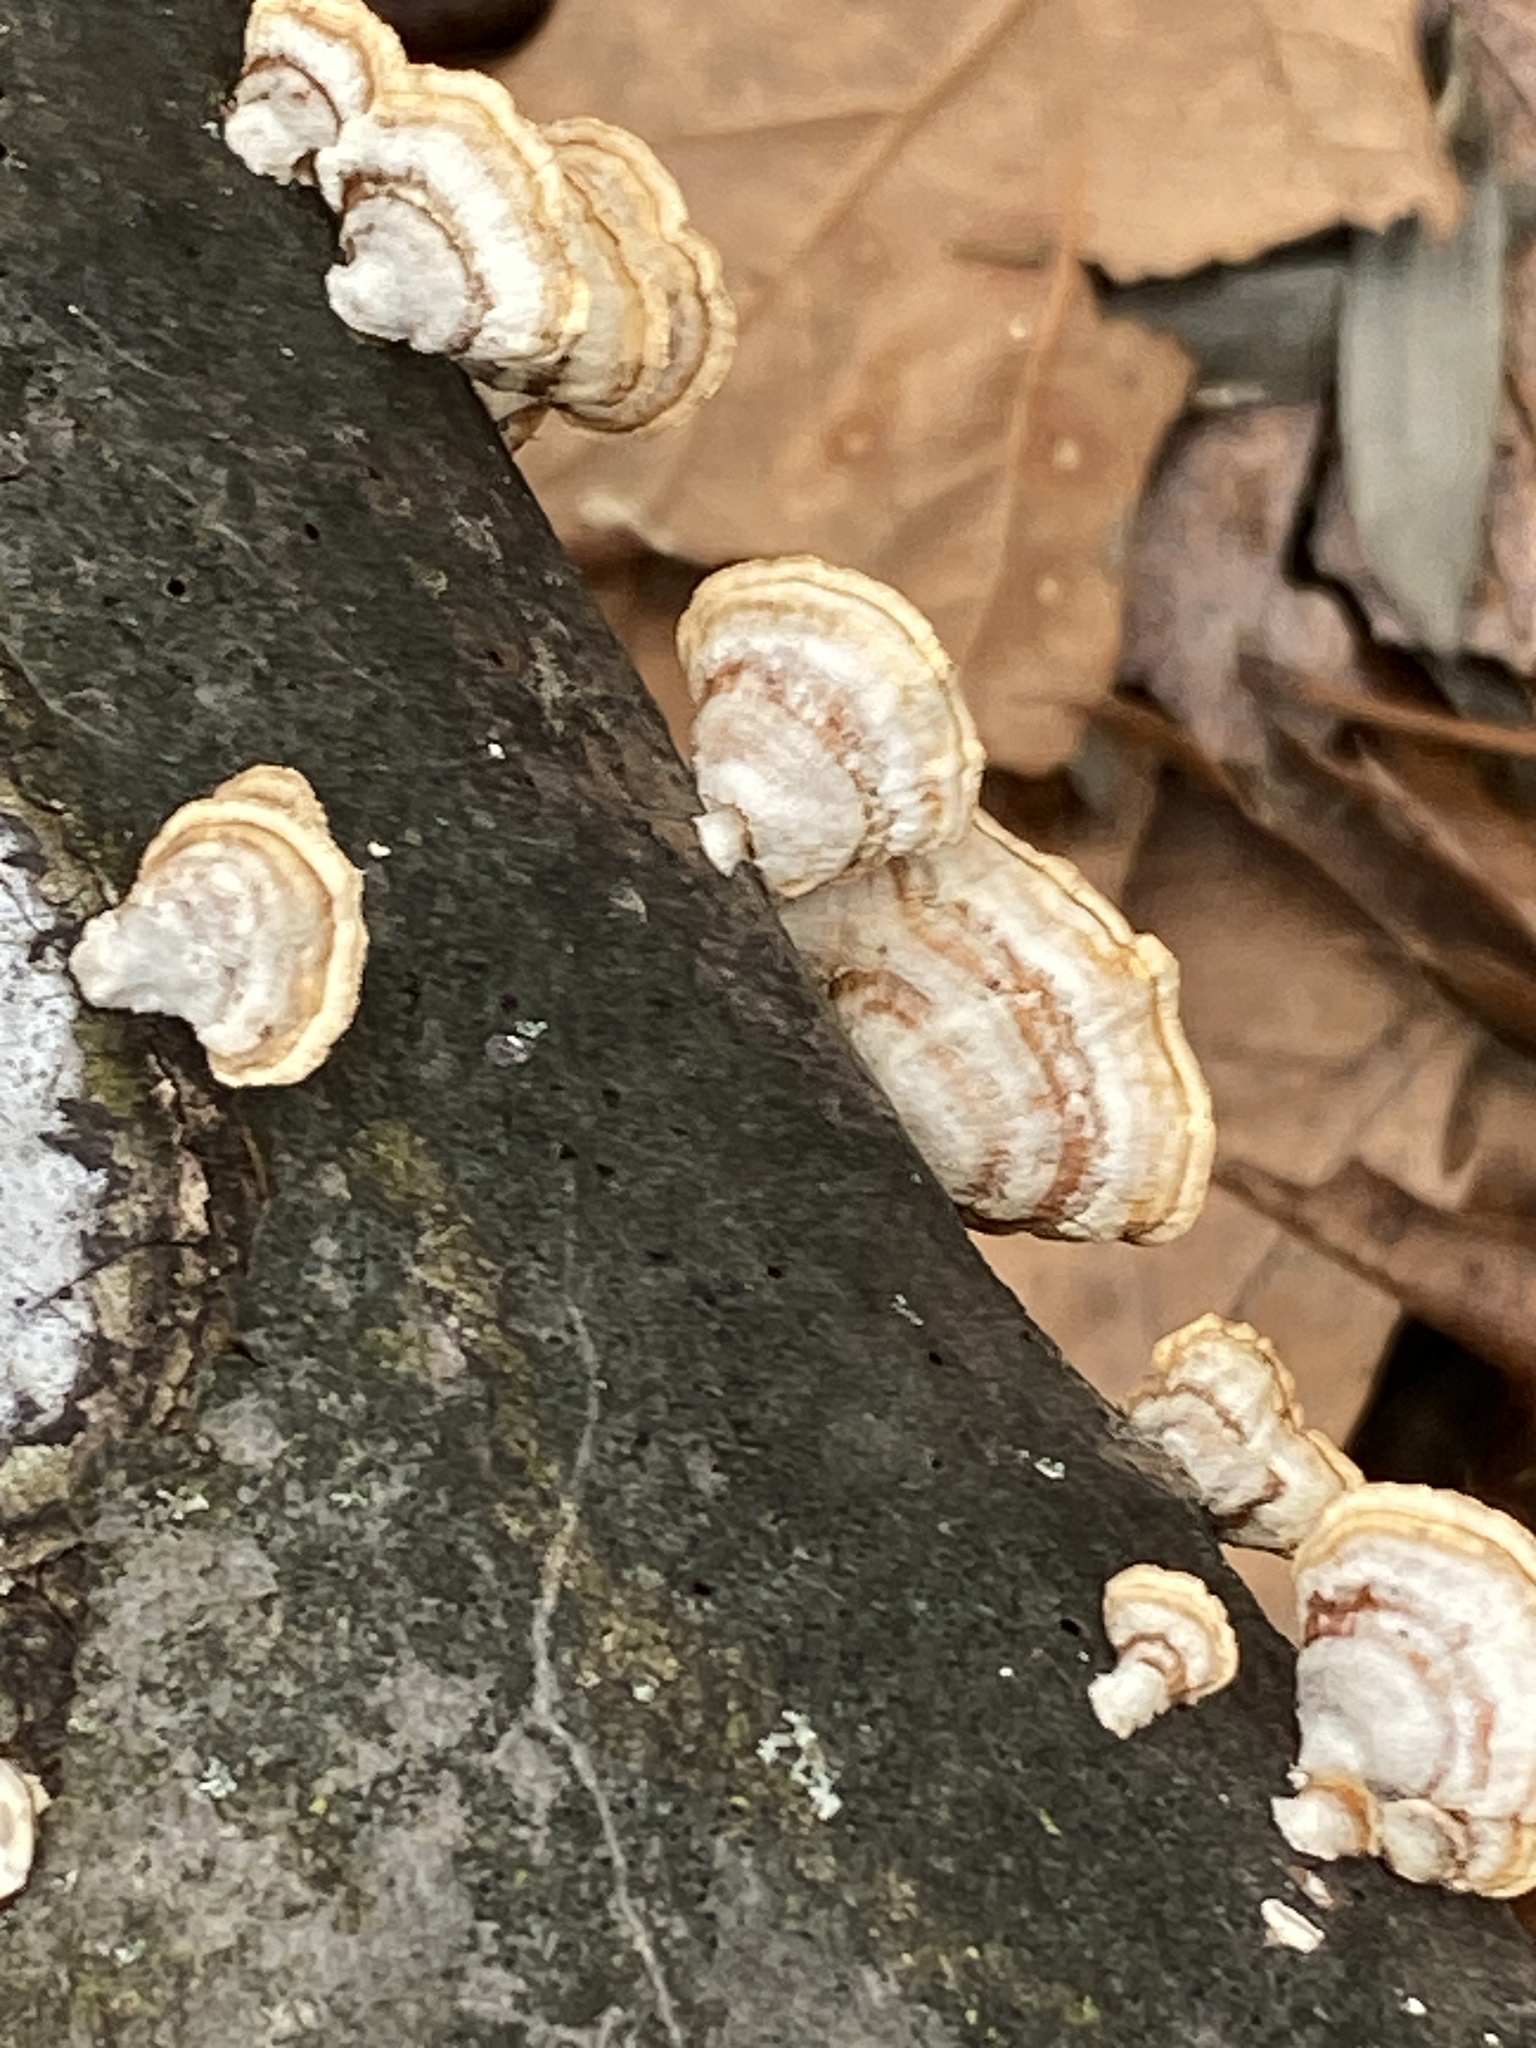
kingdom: Fungi
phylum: Basidiomycota
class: Agaricomycetes
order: Russulales
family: Stereaceae
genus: Stereum
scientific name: Stereum lobatum
